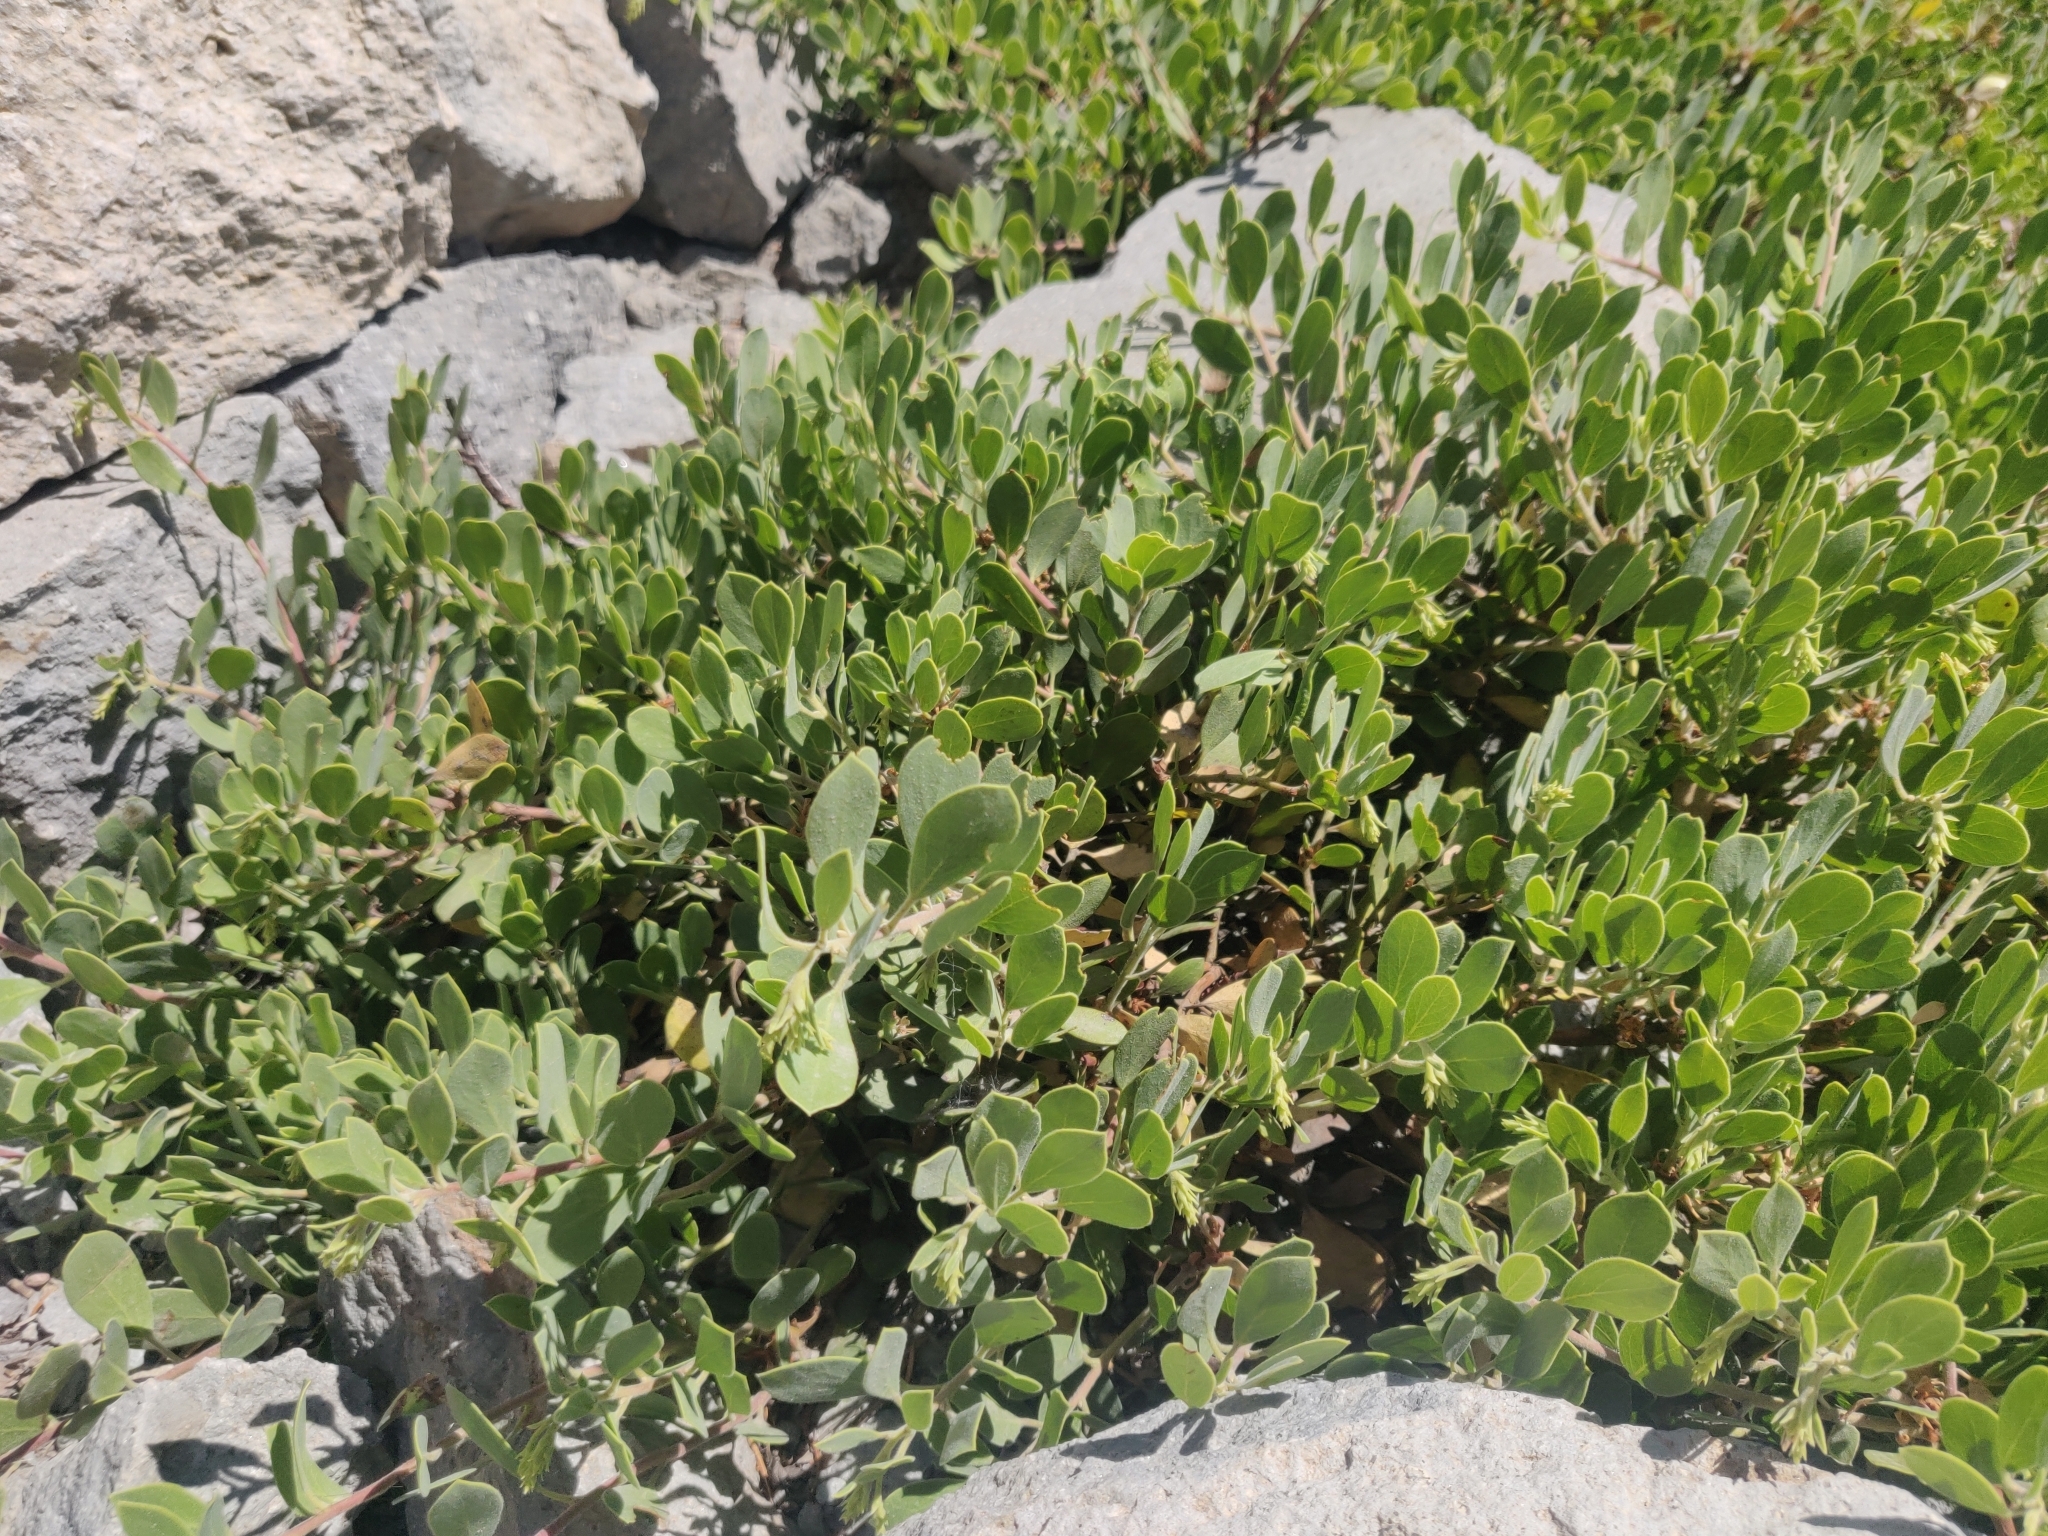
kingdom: Plantae
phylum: Tracheophyta
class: Magnoliopsida
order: Ericales
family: Ericaceae
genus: Arctostaphylos
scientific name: Arctostaphylos nevadensis
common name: Pinemat manzanita
